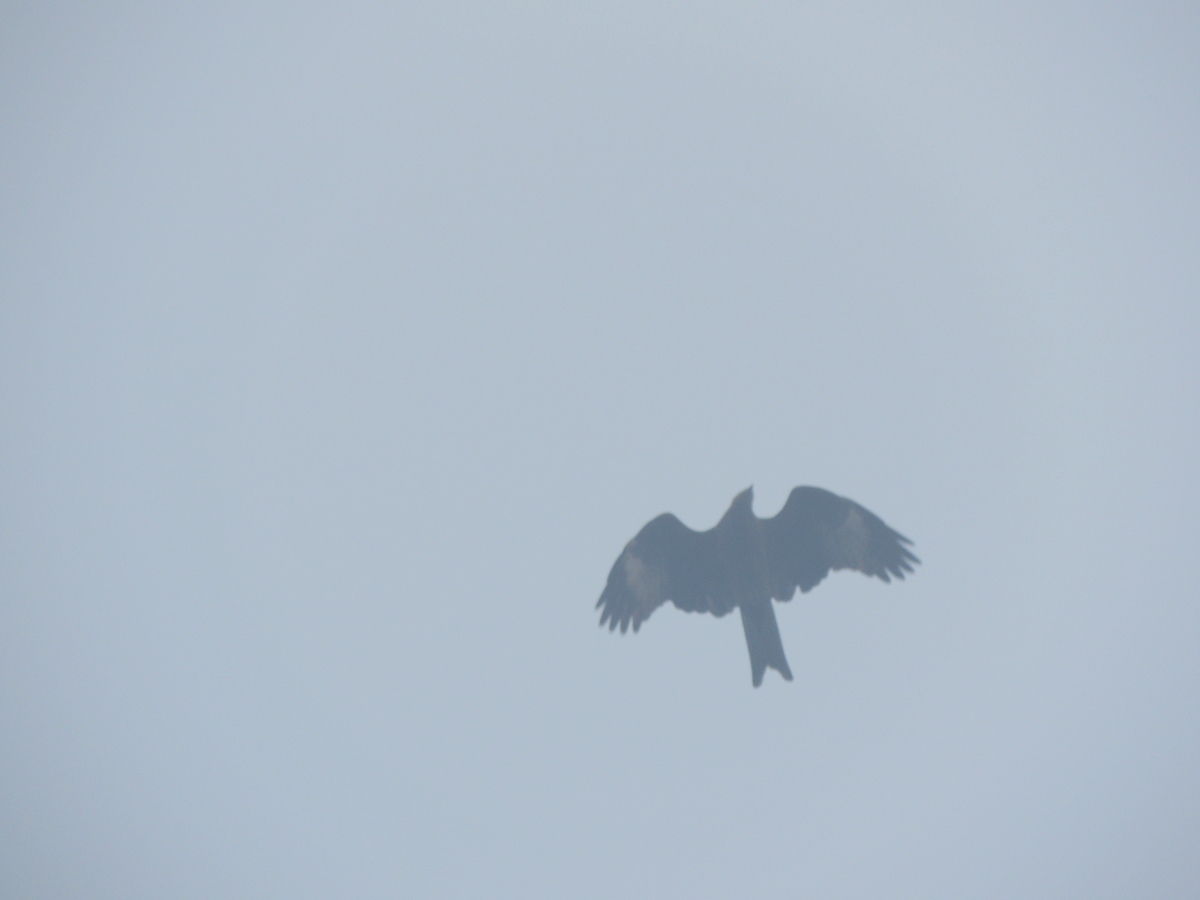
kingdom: Animalia
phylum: Chordata
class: Aves
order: Accipitriformes
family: Accipitridae
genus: Milvus
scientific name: Milvus migrans
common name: Black kite
